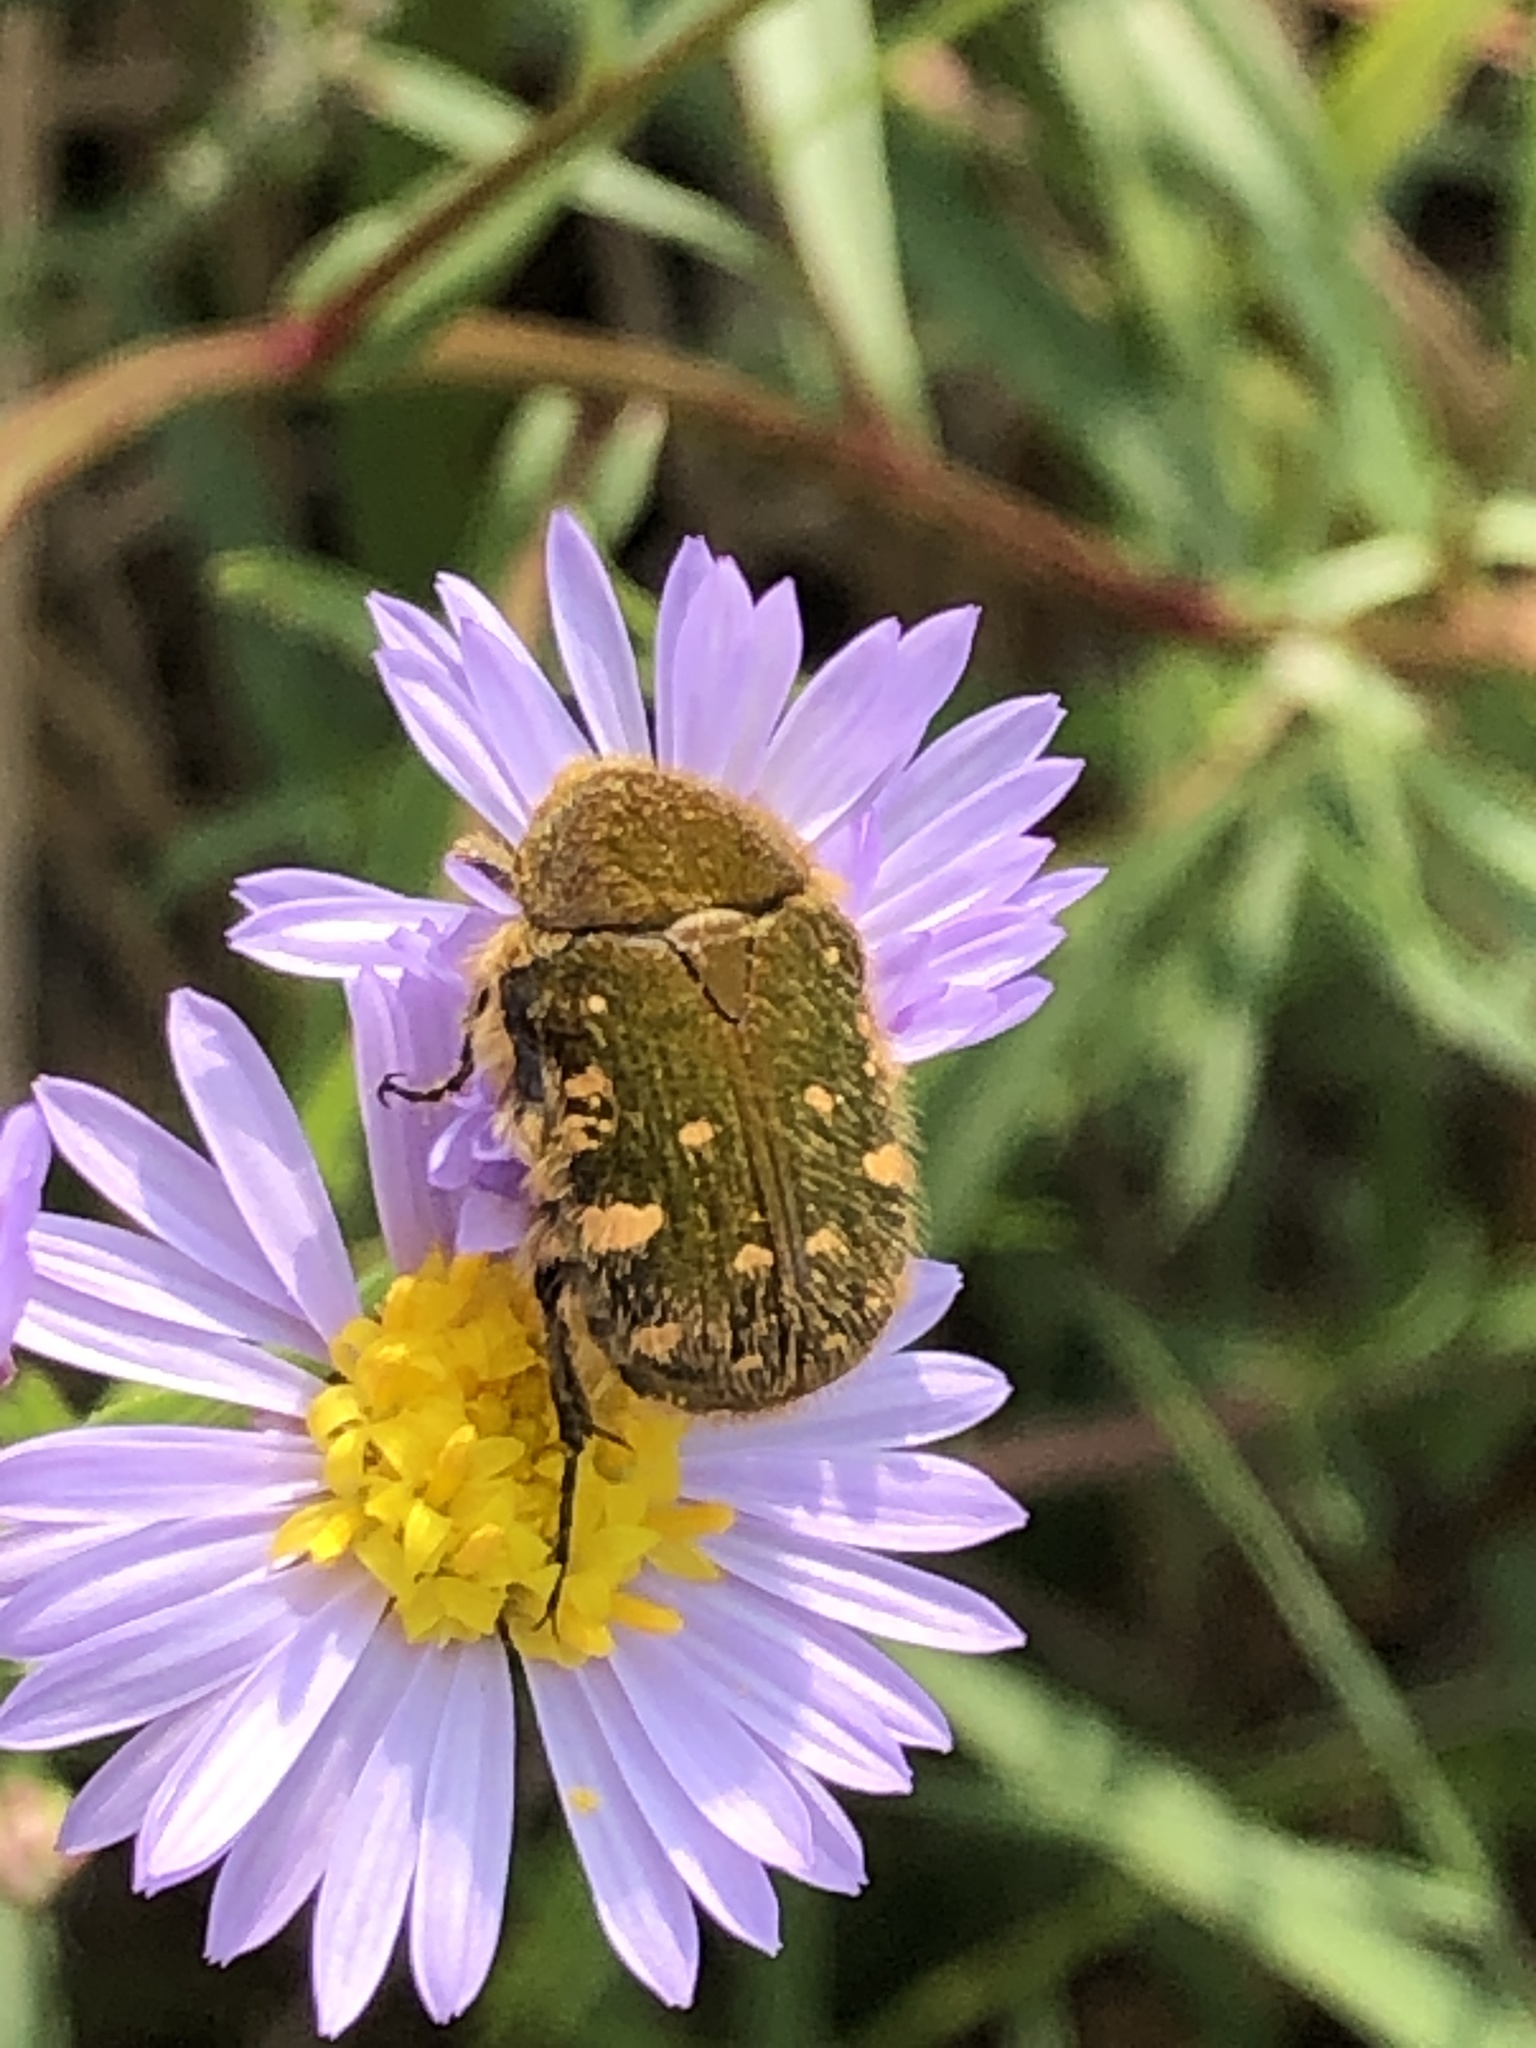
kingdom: Animalia
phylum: Arthropoda
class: Insecta
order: Coleoptera
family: Scarabaeidae
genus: Gametis
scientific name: Gametis jucunda
